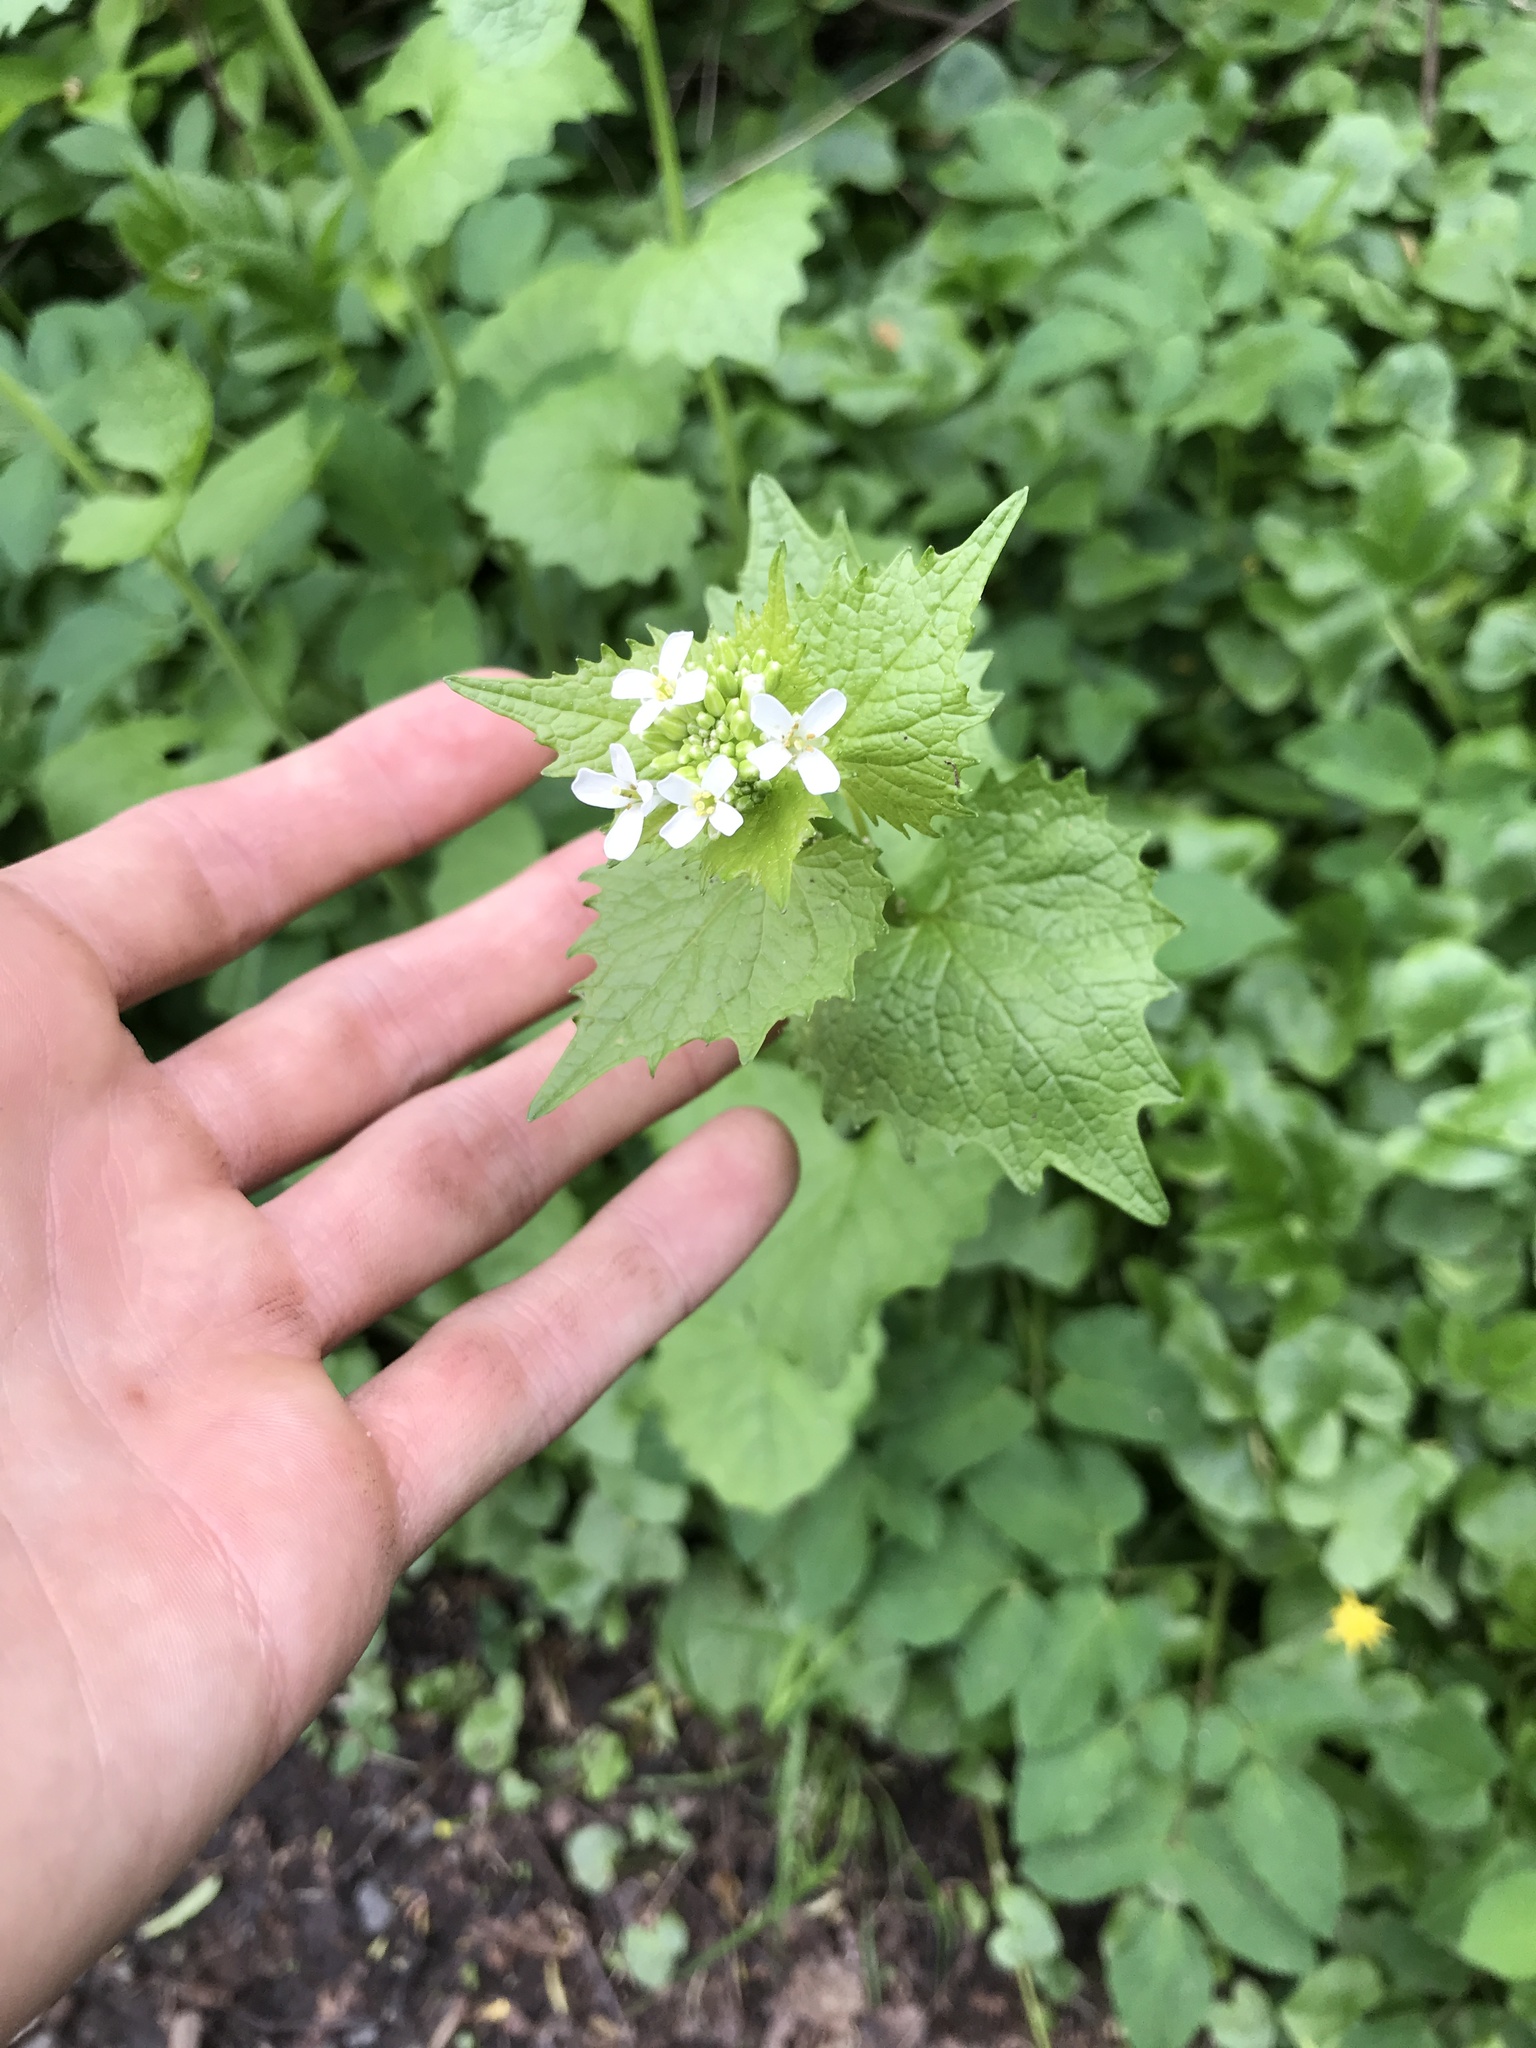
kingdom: Plantae
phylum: Tracheophyta
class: Magnoliopsida
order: Brassicales
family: Brassicaceae
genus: Alliaria
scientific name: Alliaria petiolata
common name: Garlic mustard
